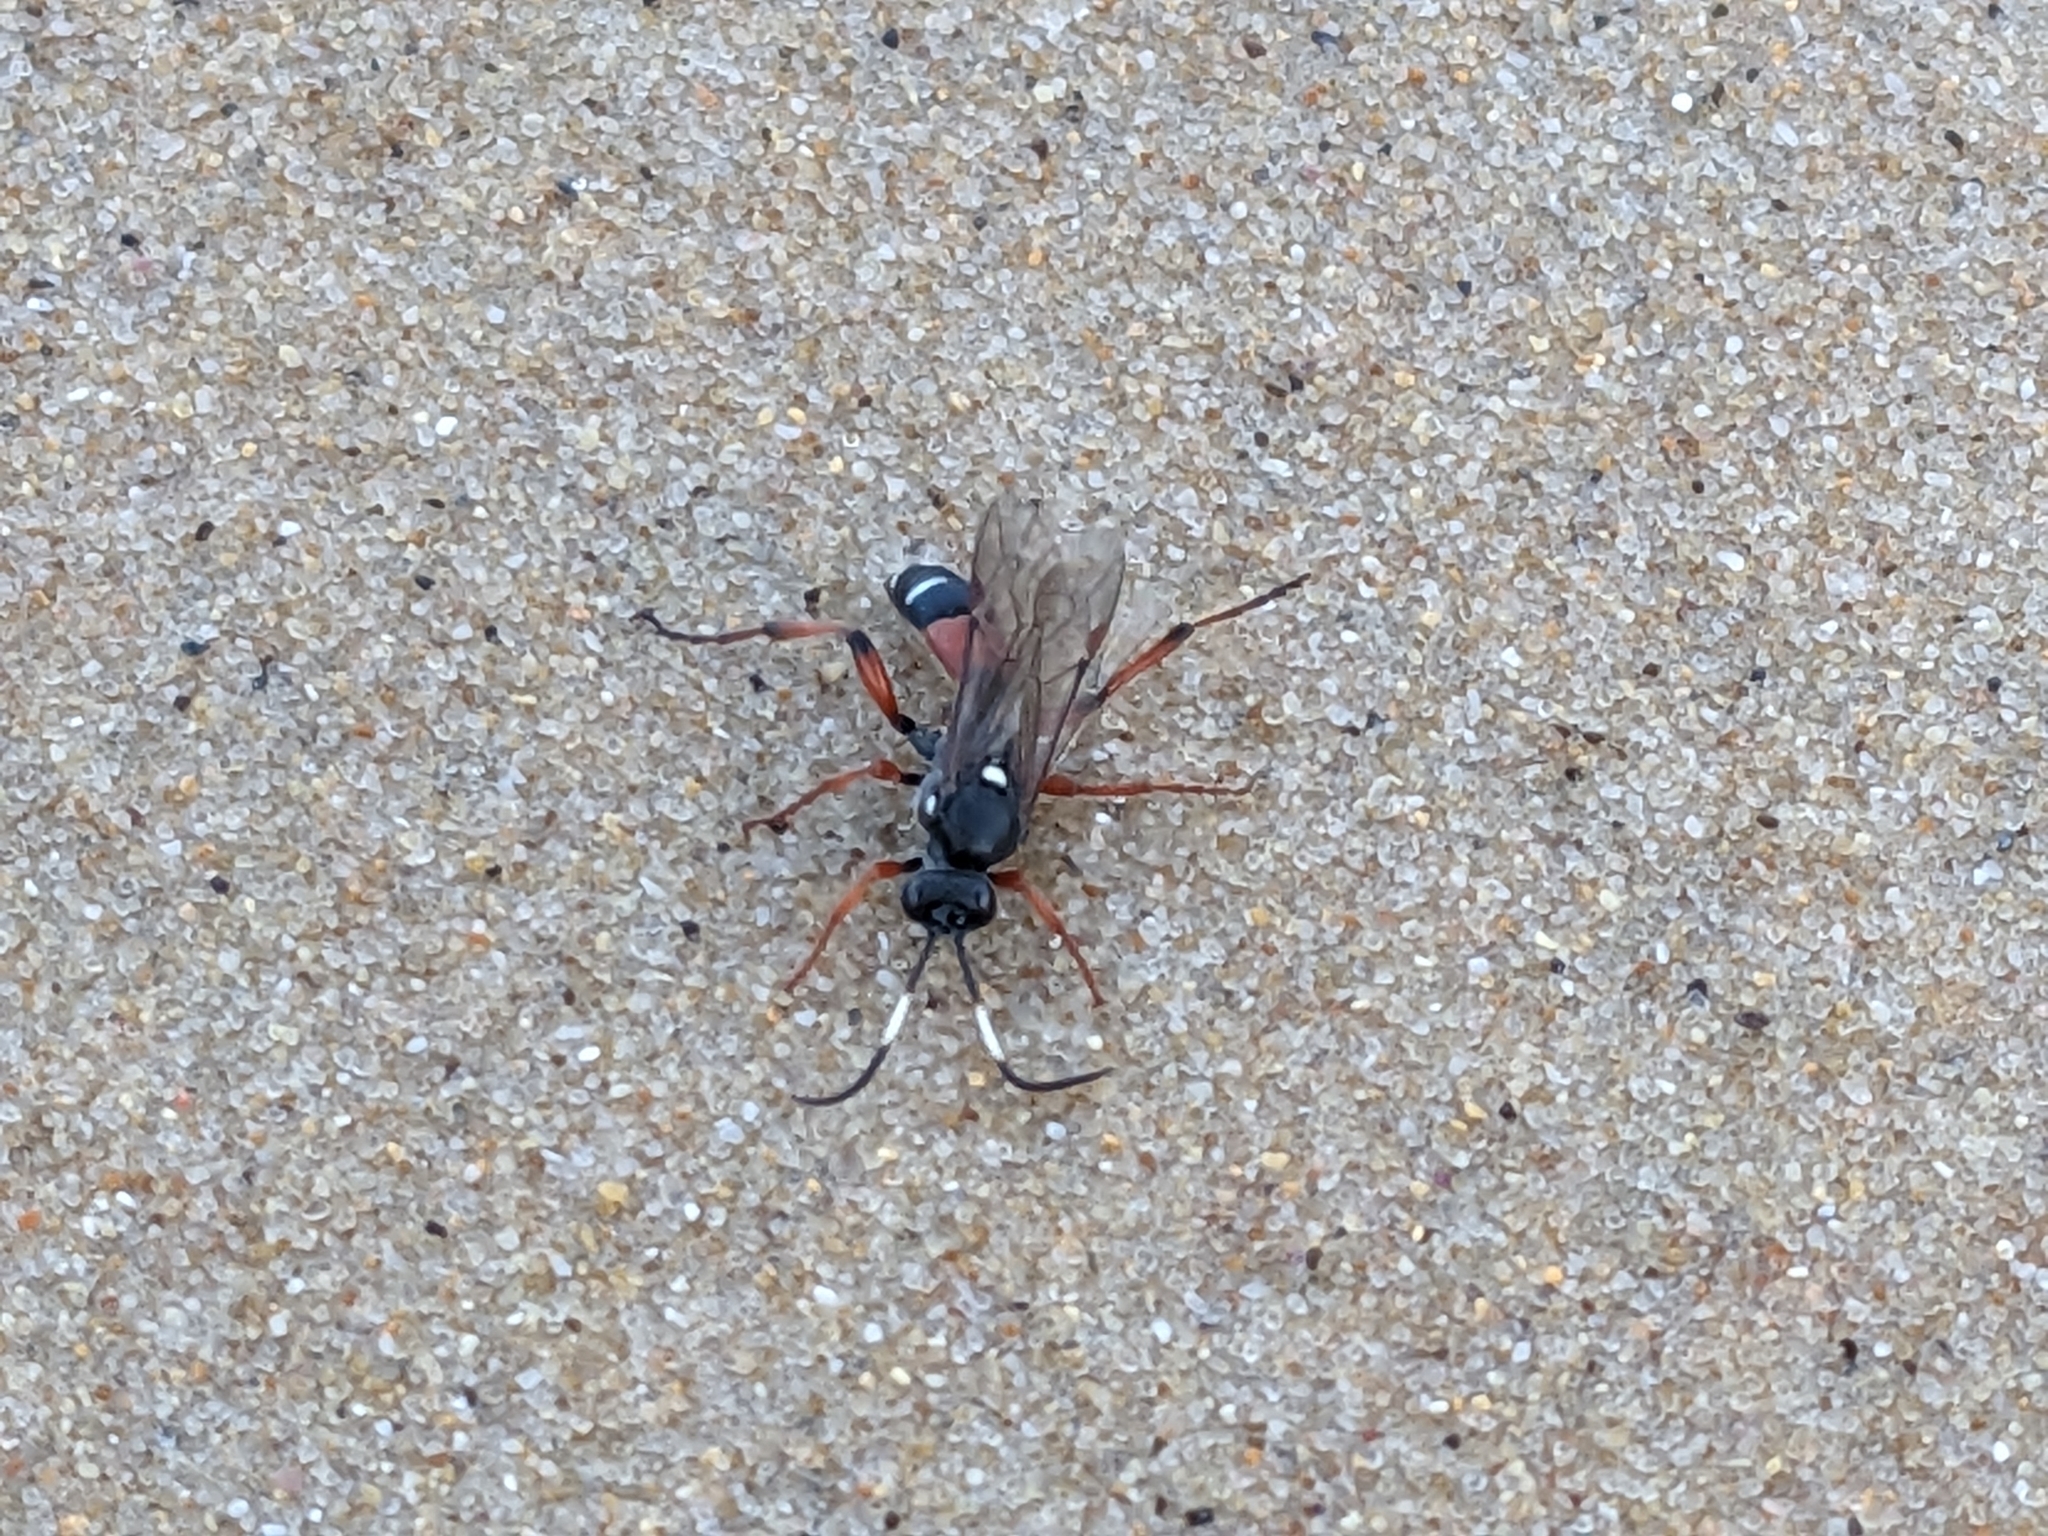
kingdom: Animalia
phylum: Arthropoda
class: Insecta
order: Hymenoptera
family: Ichneumonidae
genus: Ichneumon
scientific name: Ichneumon promissorius
